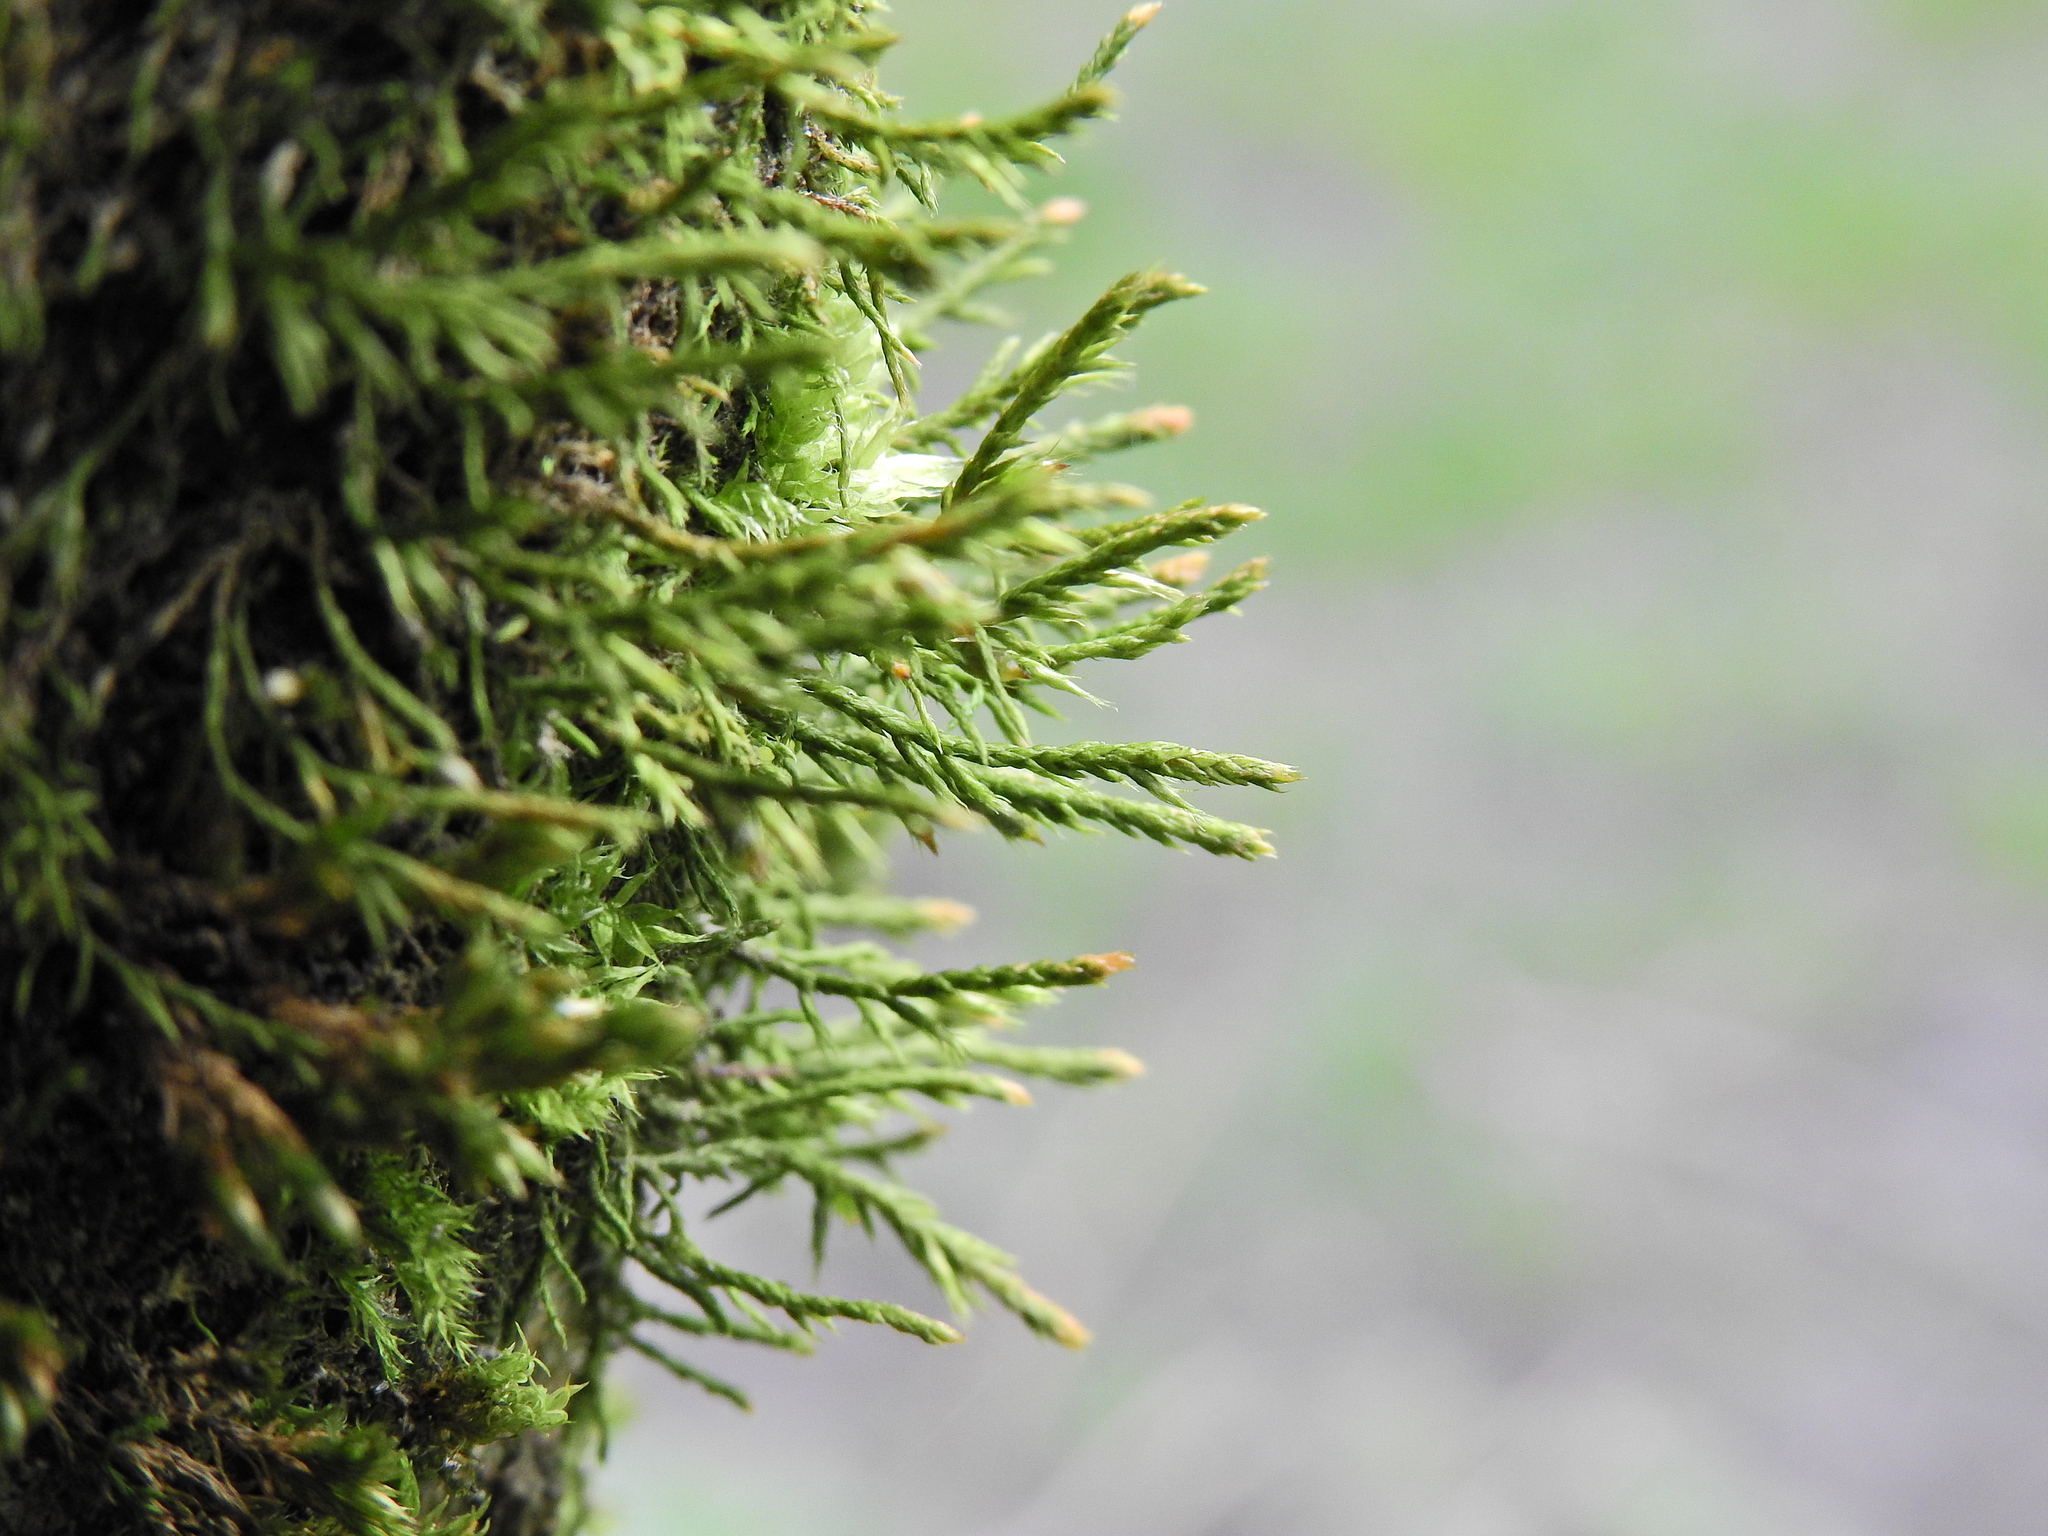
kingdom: Plantae
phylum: Bryophyta
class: Bryopsida
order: Hypnales
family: Cryphaeaceae
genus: Cryphaea
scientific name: Cryphaea heteromalla
